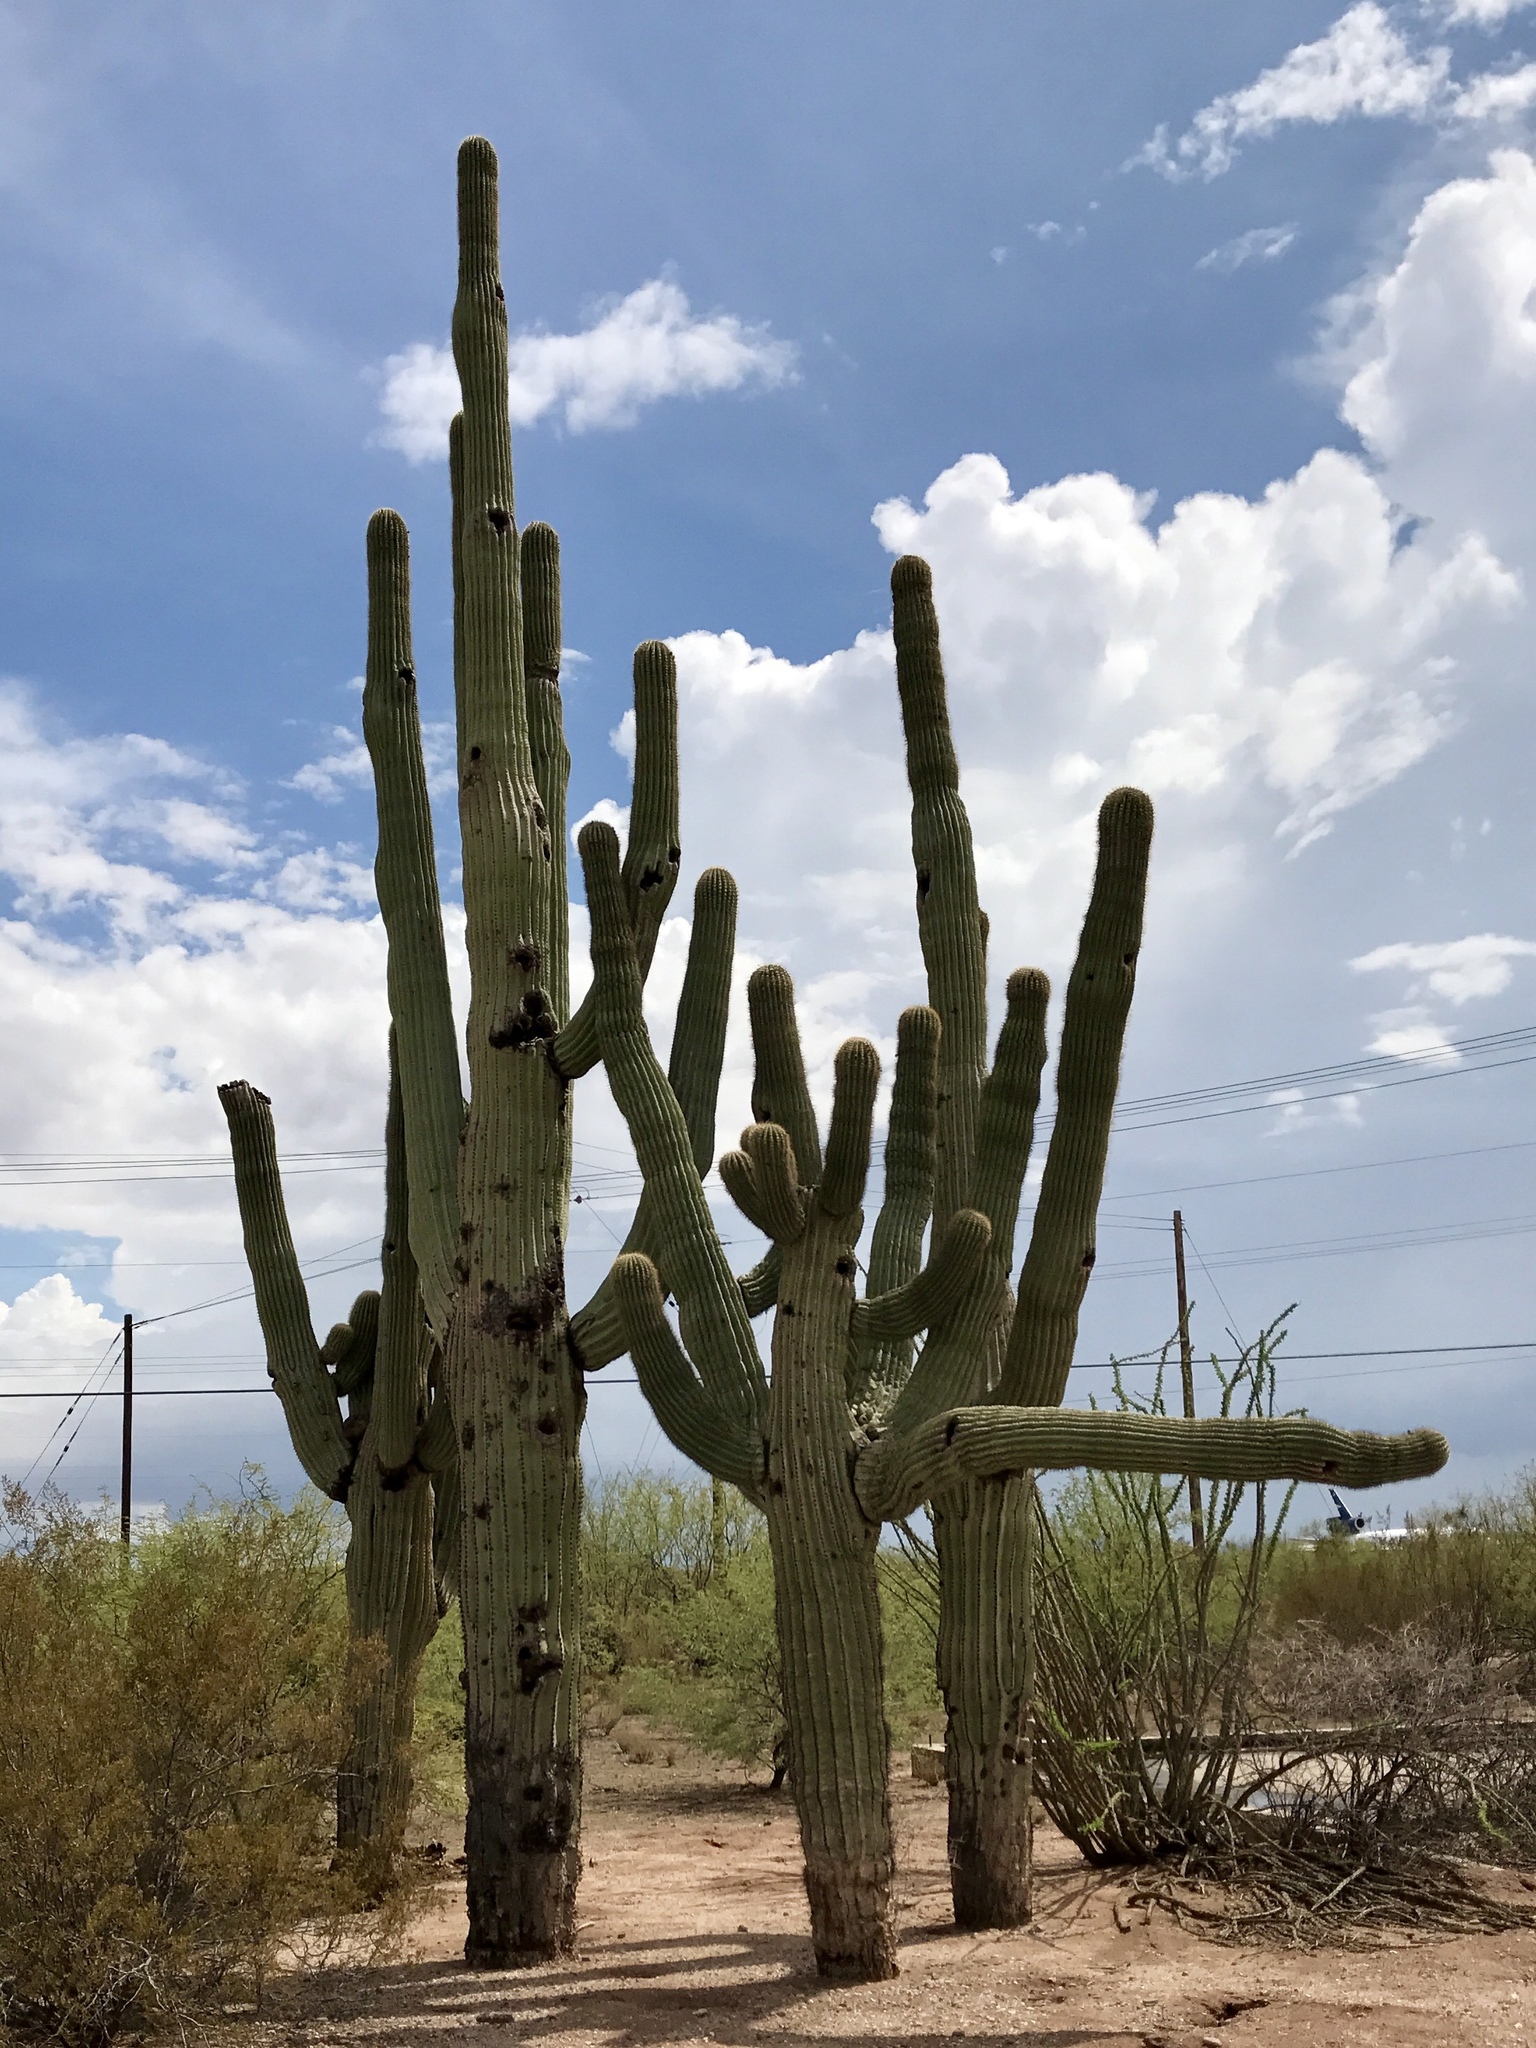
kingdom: Plantae
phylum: Tracheophyta
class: Magnoliopsida
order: Caryophyllales
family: Cactaceae
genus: Carnegiea
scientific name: Carnegiea gigantea
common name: Saguaro
